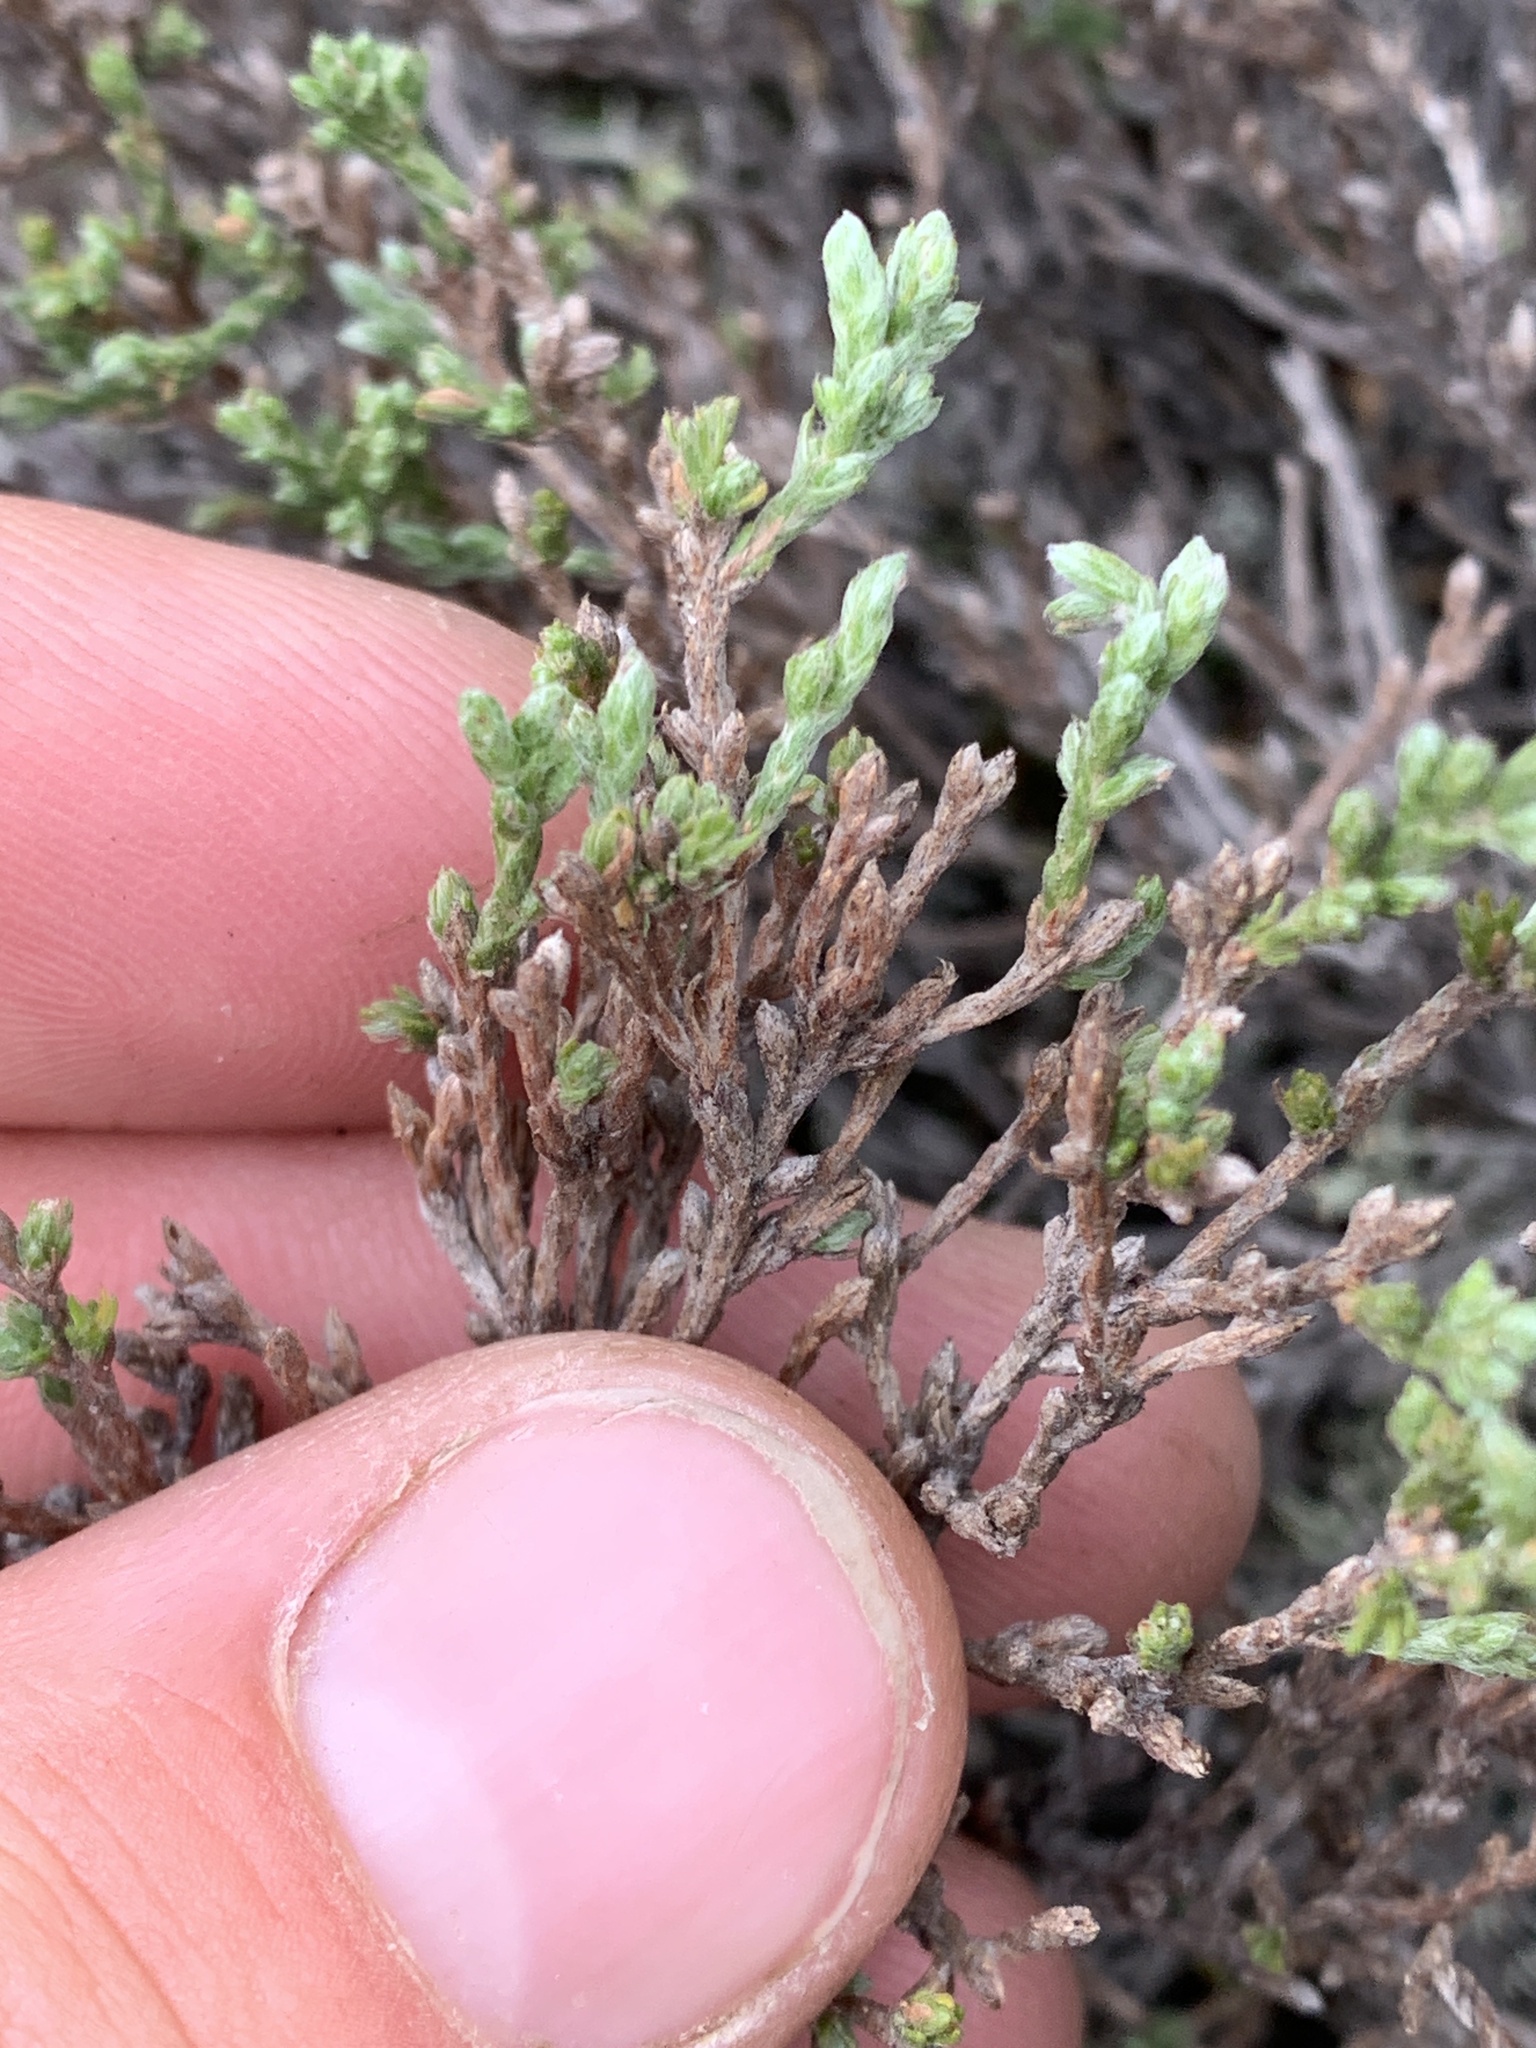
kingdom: Plantae
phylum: Tracheophyta
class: Magnoliopsida
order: Malvales
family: Cistaceae
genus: Hudsonia
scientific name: Hudsonia tomentosa
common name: Beach-heath
